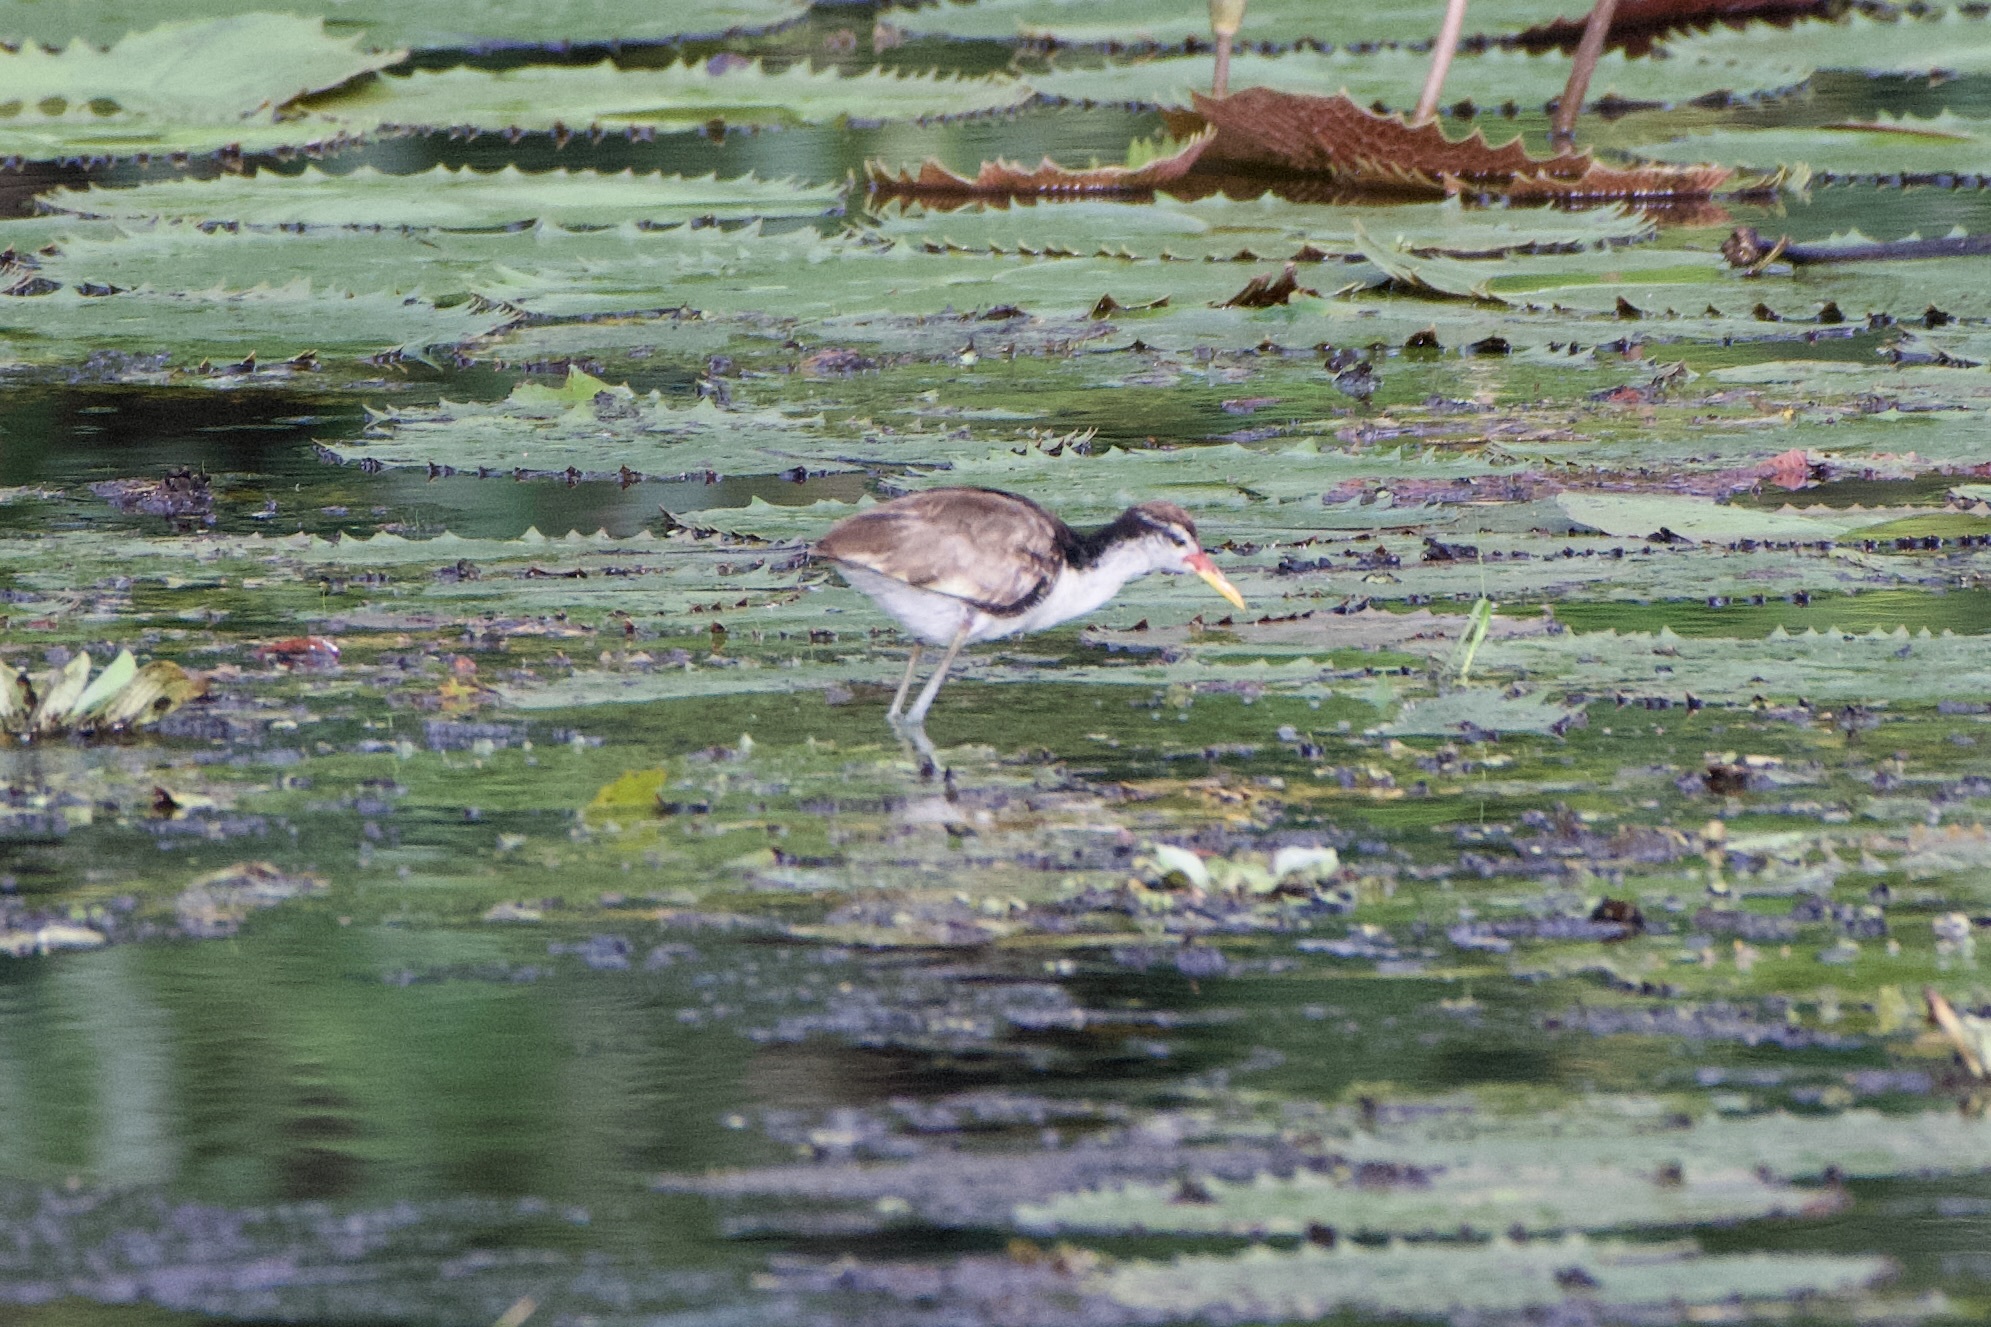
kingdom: Animalia
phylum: Chordata
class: Aves
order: Charadriiformes
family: Jacanidae
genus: Jacana
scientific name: Jacana jacana
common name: Wattled jacana
